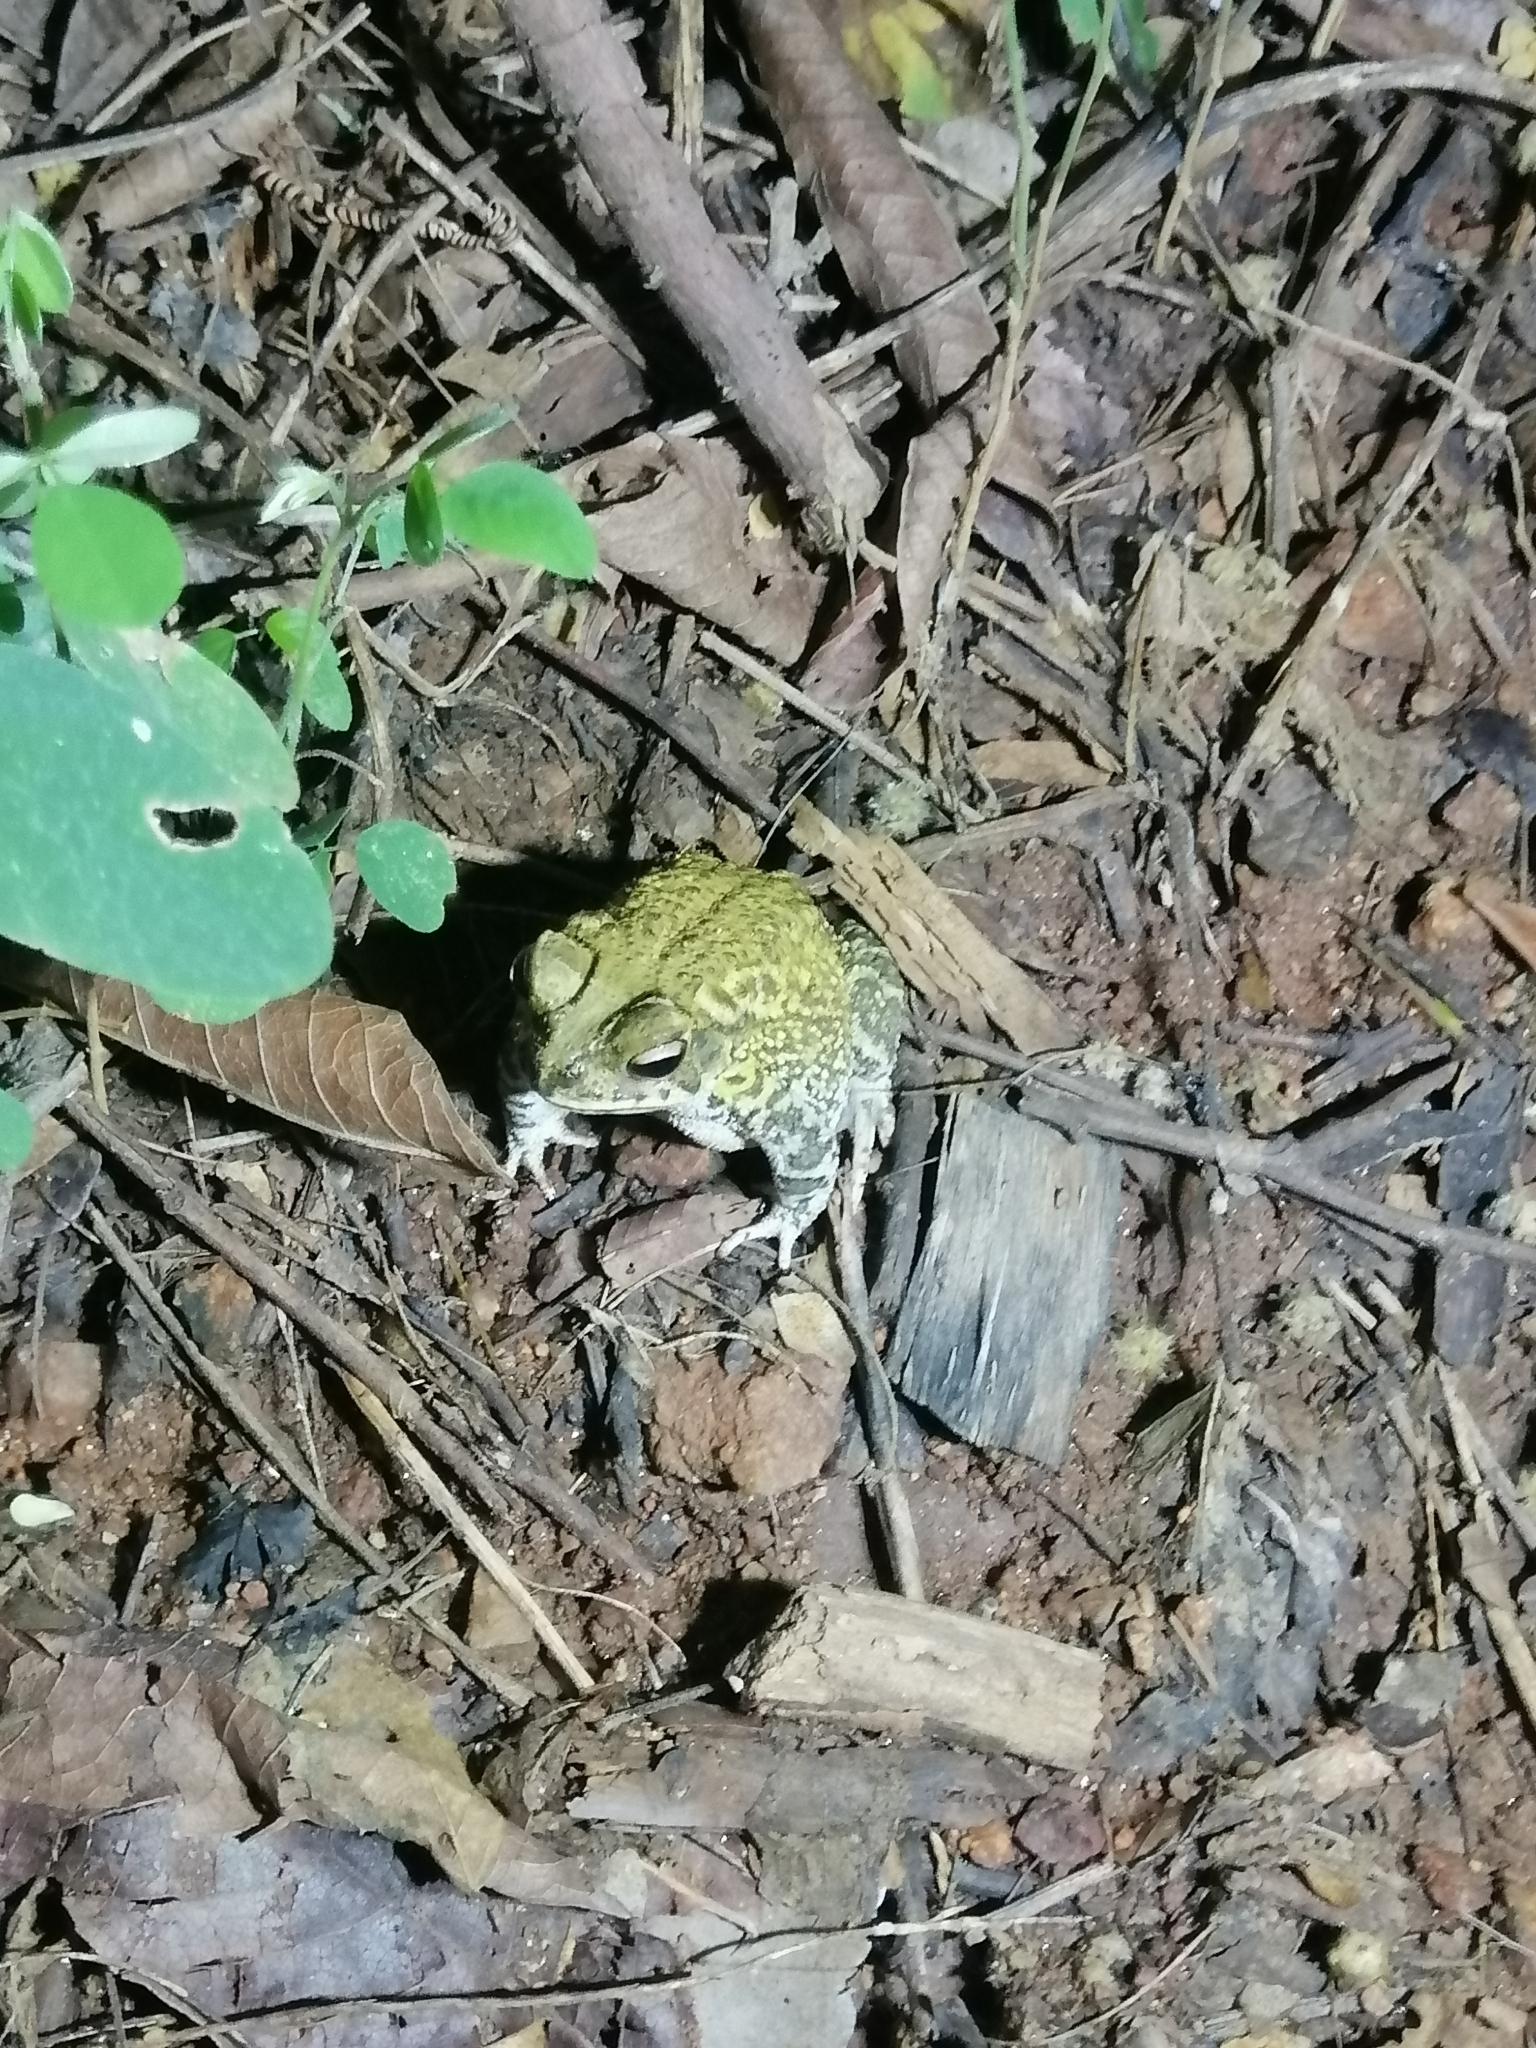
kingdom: Animalia
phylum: Chordata
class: Amphibia
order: Anura
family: Bufonidae
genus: Incilius
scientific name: Incilius marmoreus
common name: Marbled toad
